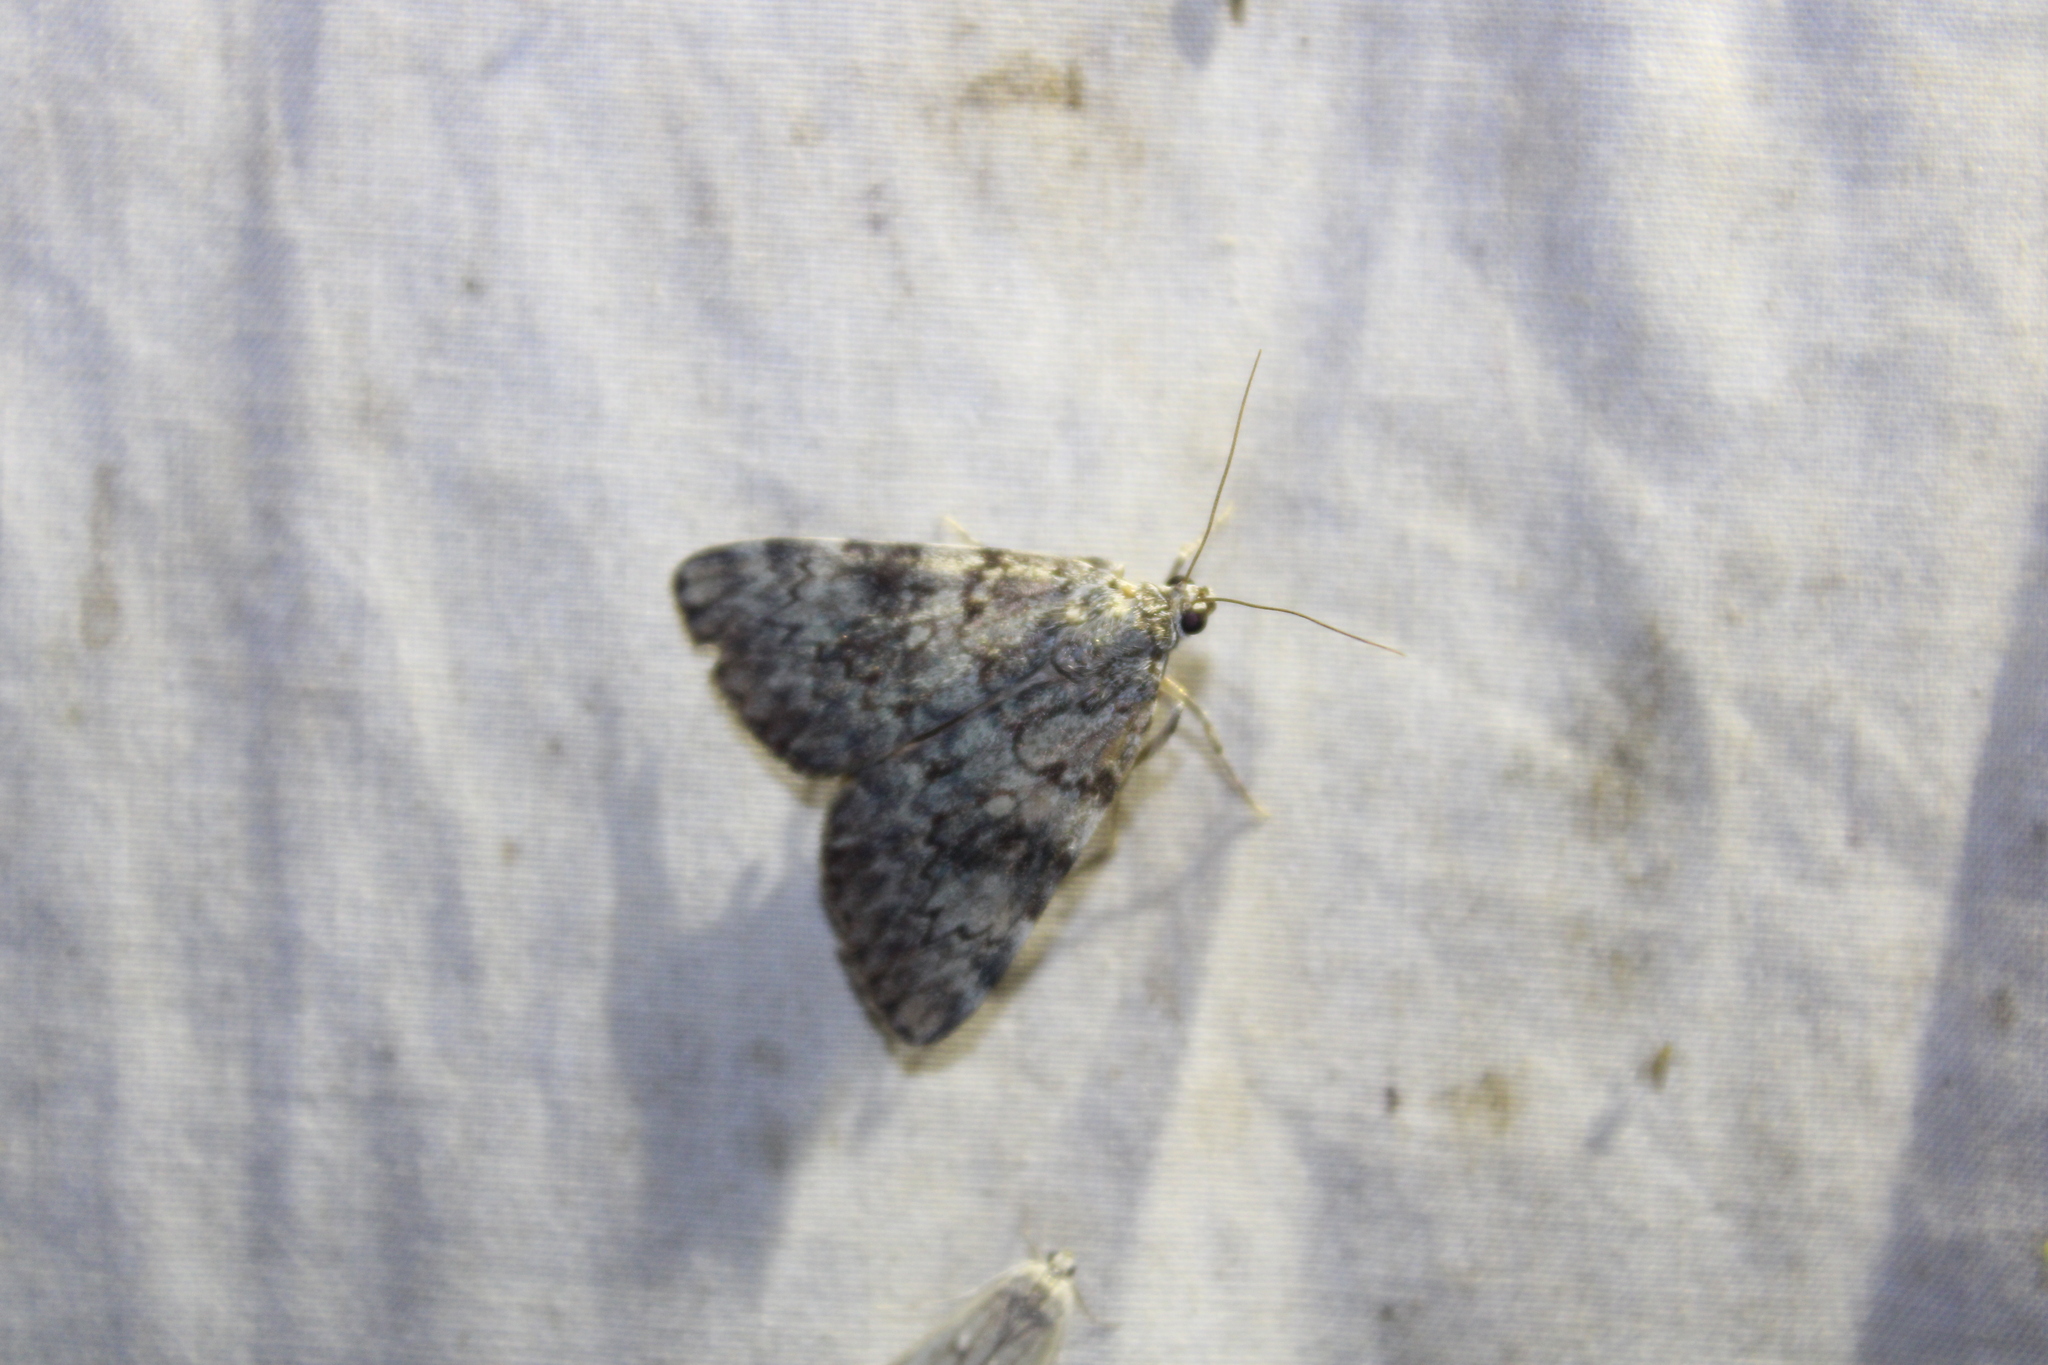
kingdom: Animalia
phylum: Arthropoda
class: Insecta
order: Lepidoptera
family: Erebidae
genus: Catocala
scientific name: Catocala lineella
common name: Little lined underwing
